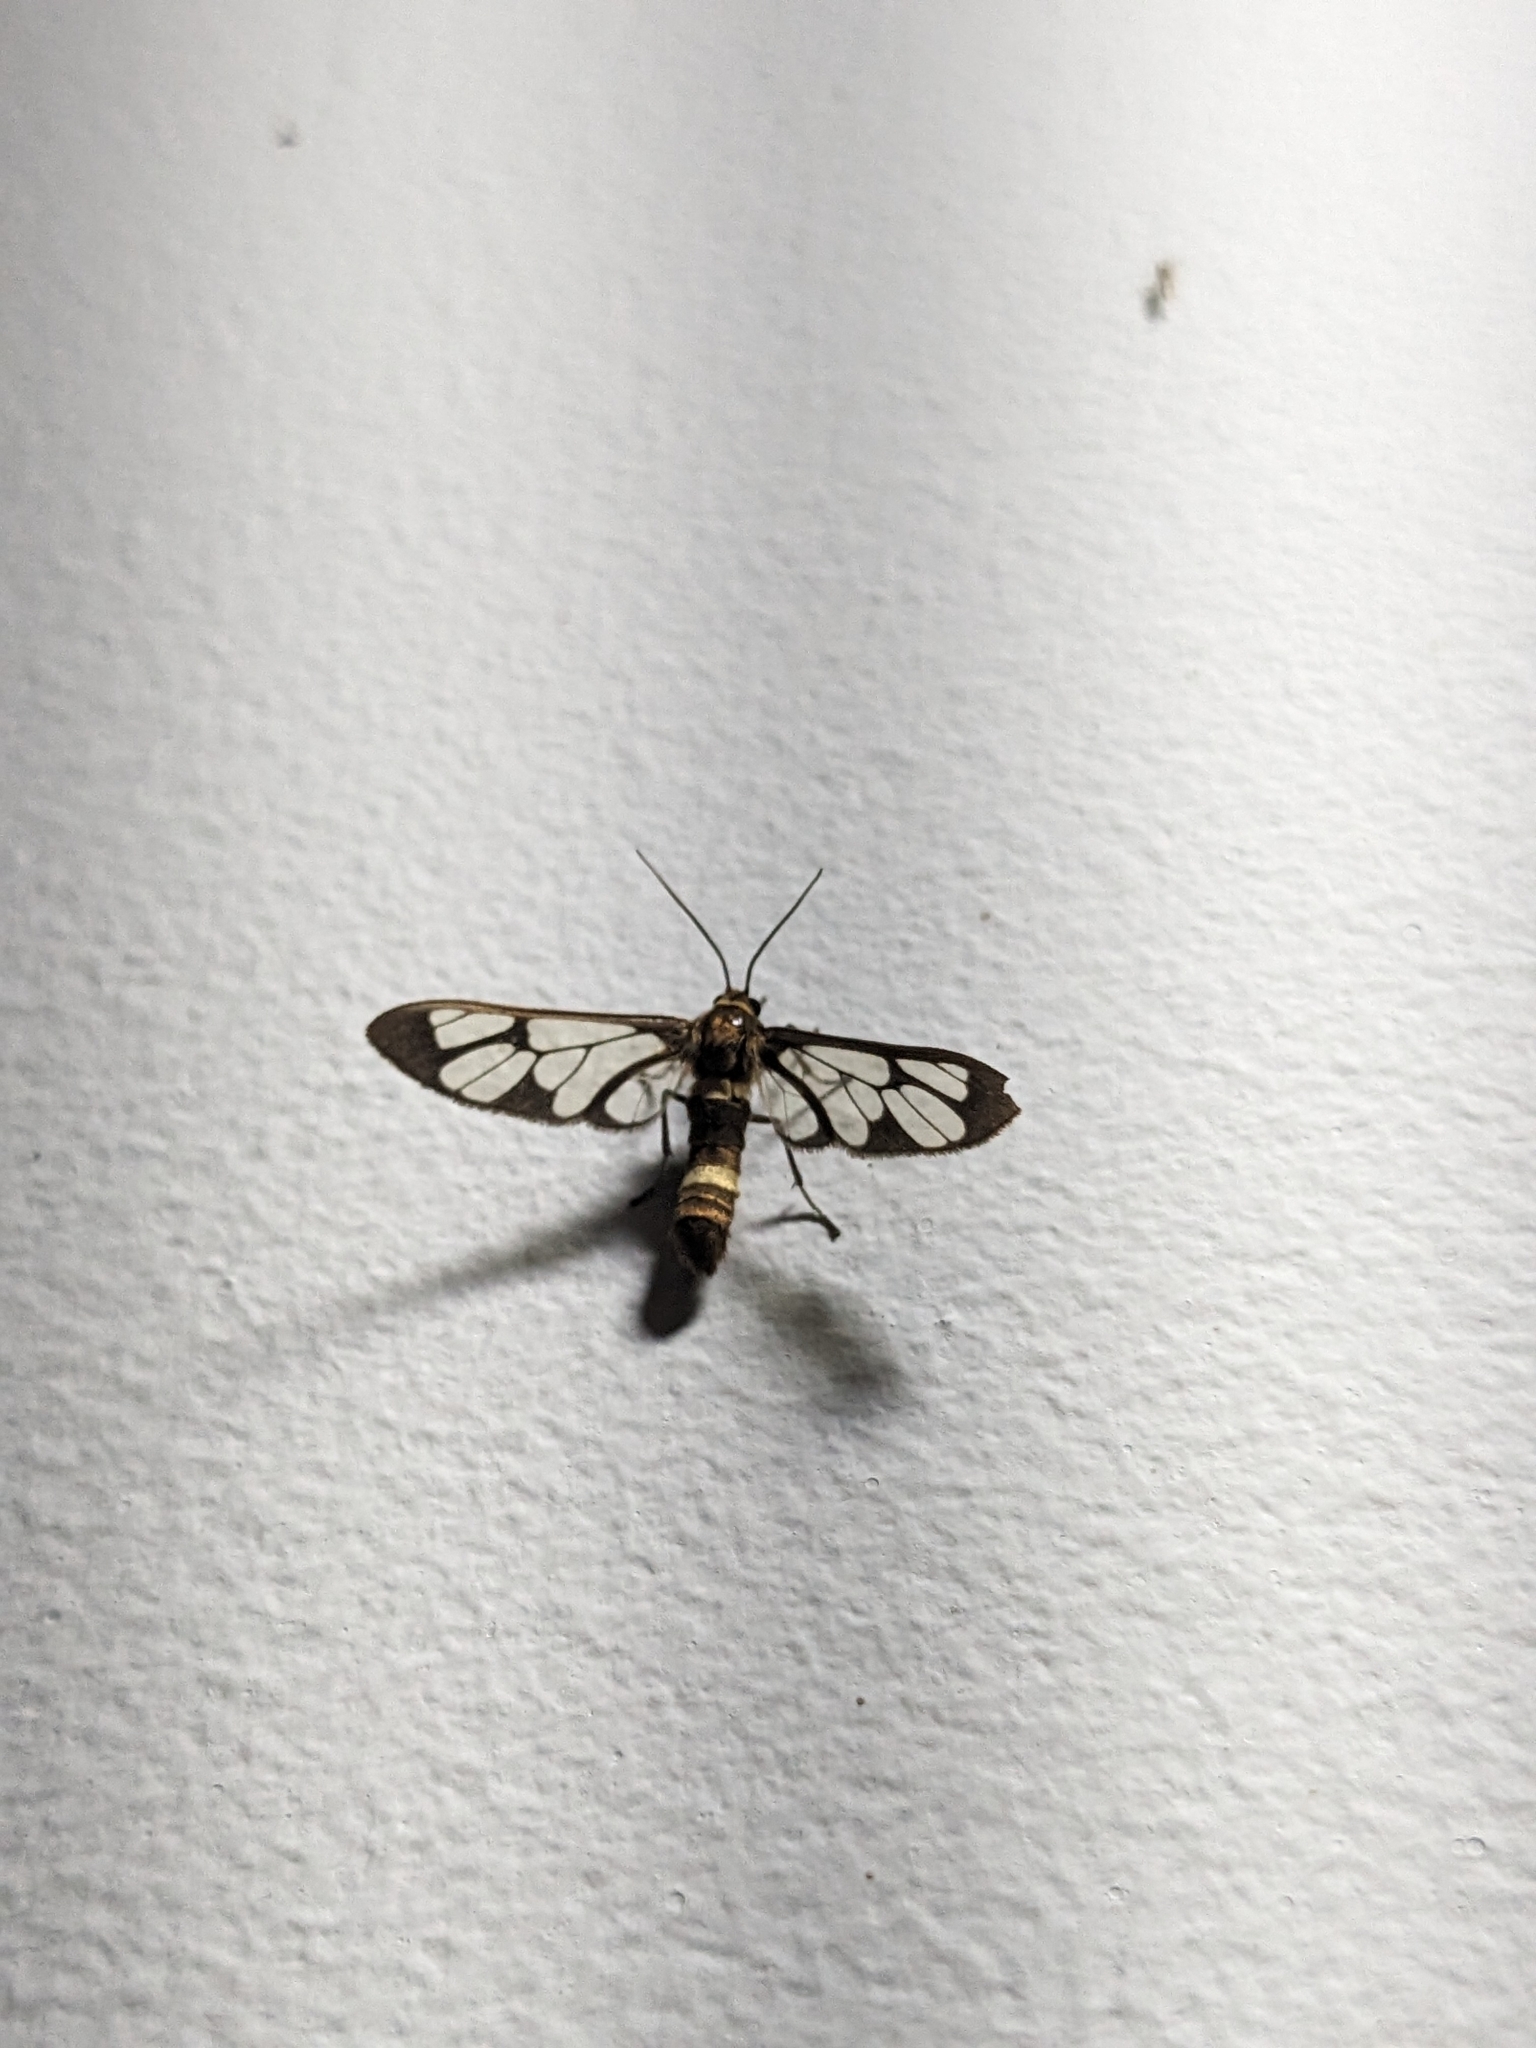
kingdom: Animalia
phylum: Arthropoda
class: Insecta
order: Lepidoptera
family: Erebidae
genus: Syntomoides
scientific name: Syntomoides imaon
